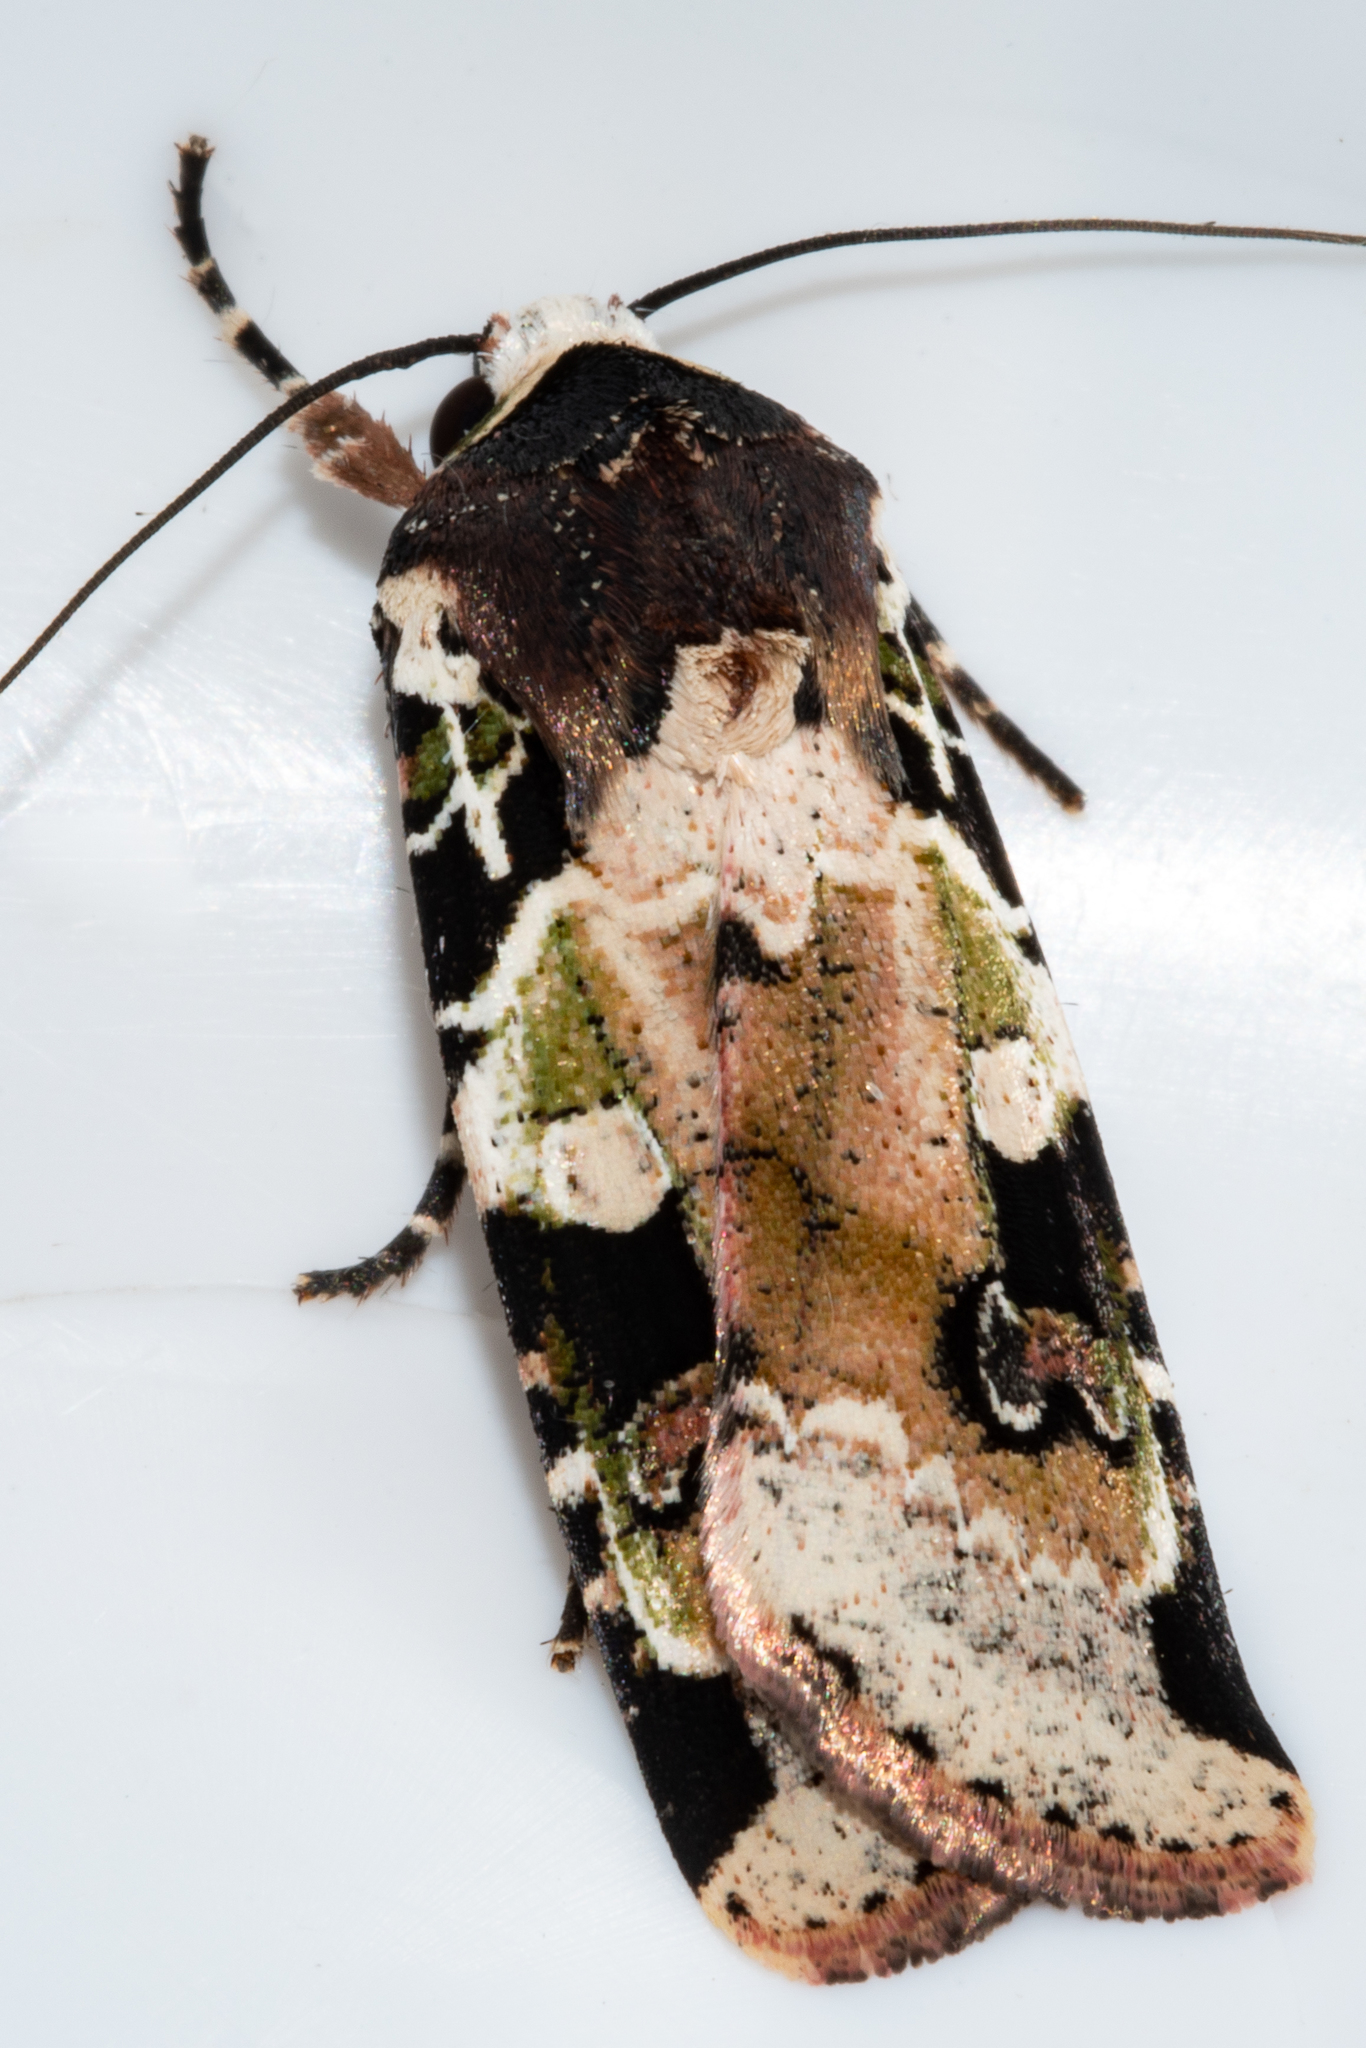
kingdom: Animalia
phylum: Arthropoda
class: Insecta
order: Lepidoptera
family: Noctuidae
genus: Mentaxya
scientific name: Mentaxya albifrons
